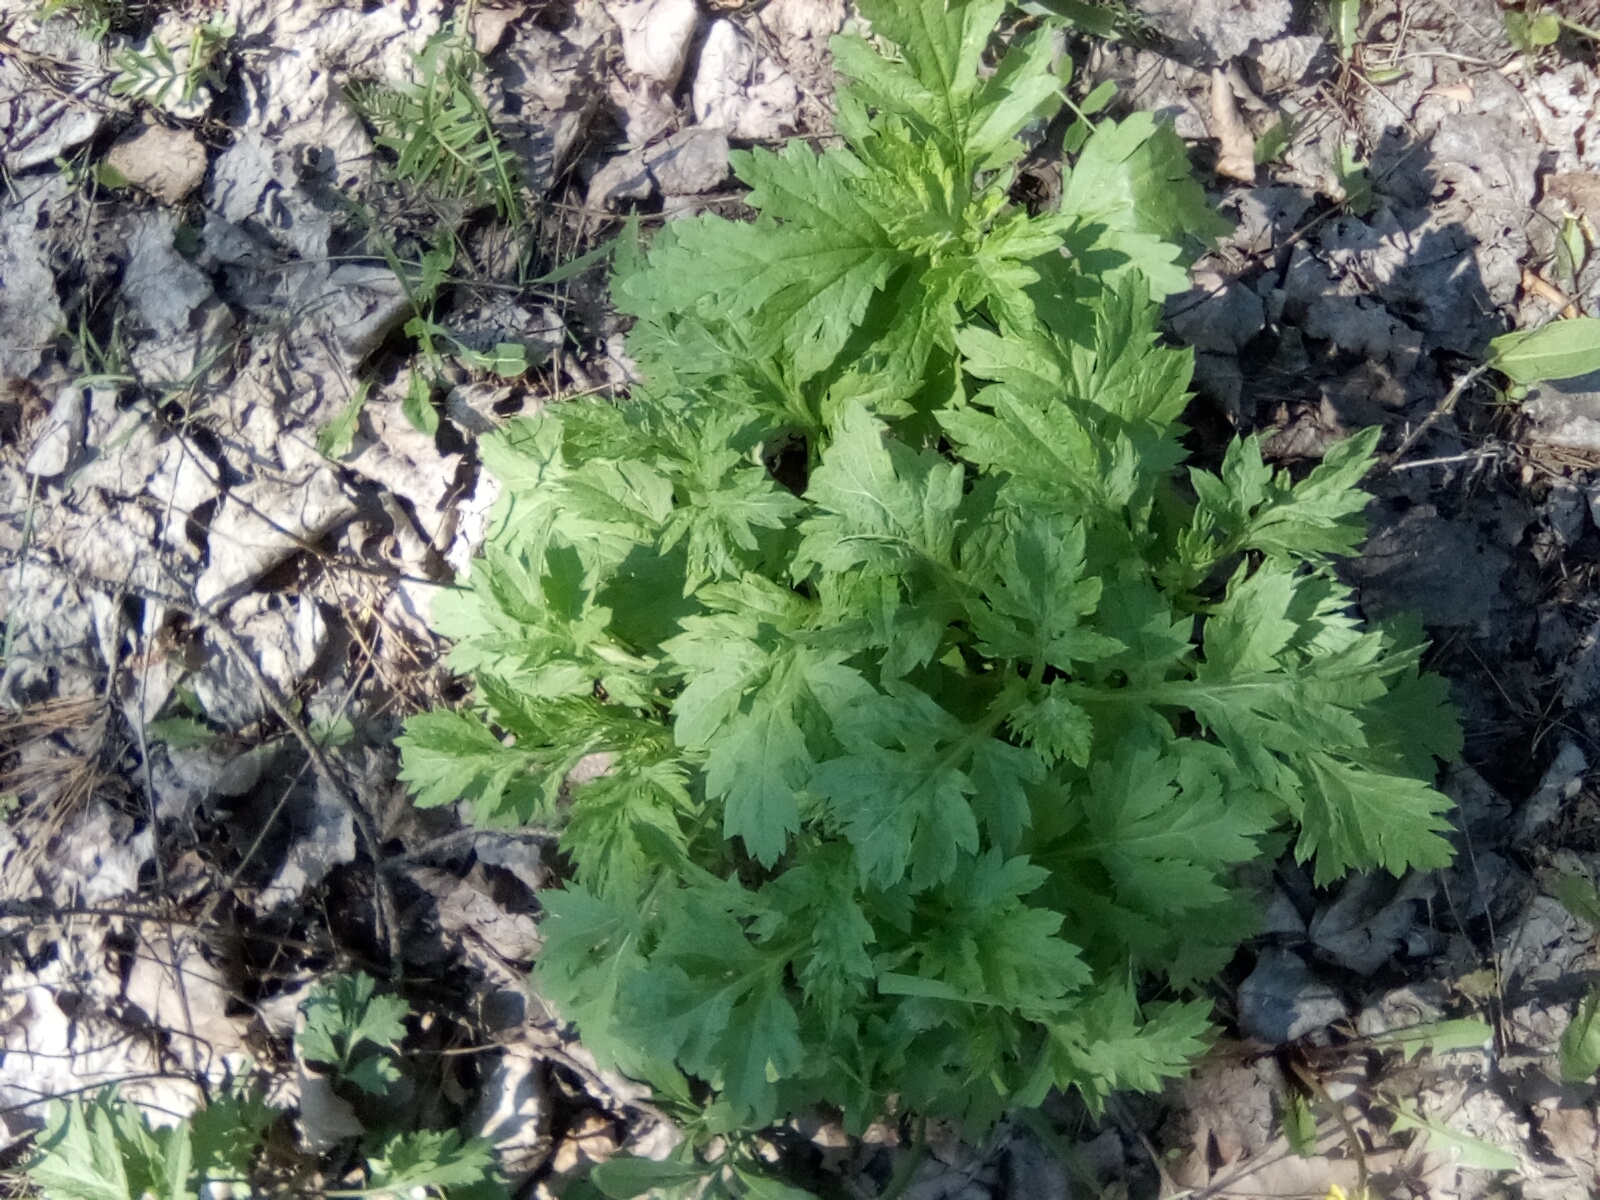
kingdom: Plantae
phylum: Tracheophyta
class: Magnoliopsida
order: Asterales
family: Asteraceae
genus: Artemisia
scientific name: Artemisia vulgaris
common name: Mugwort
